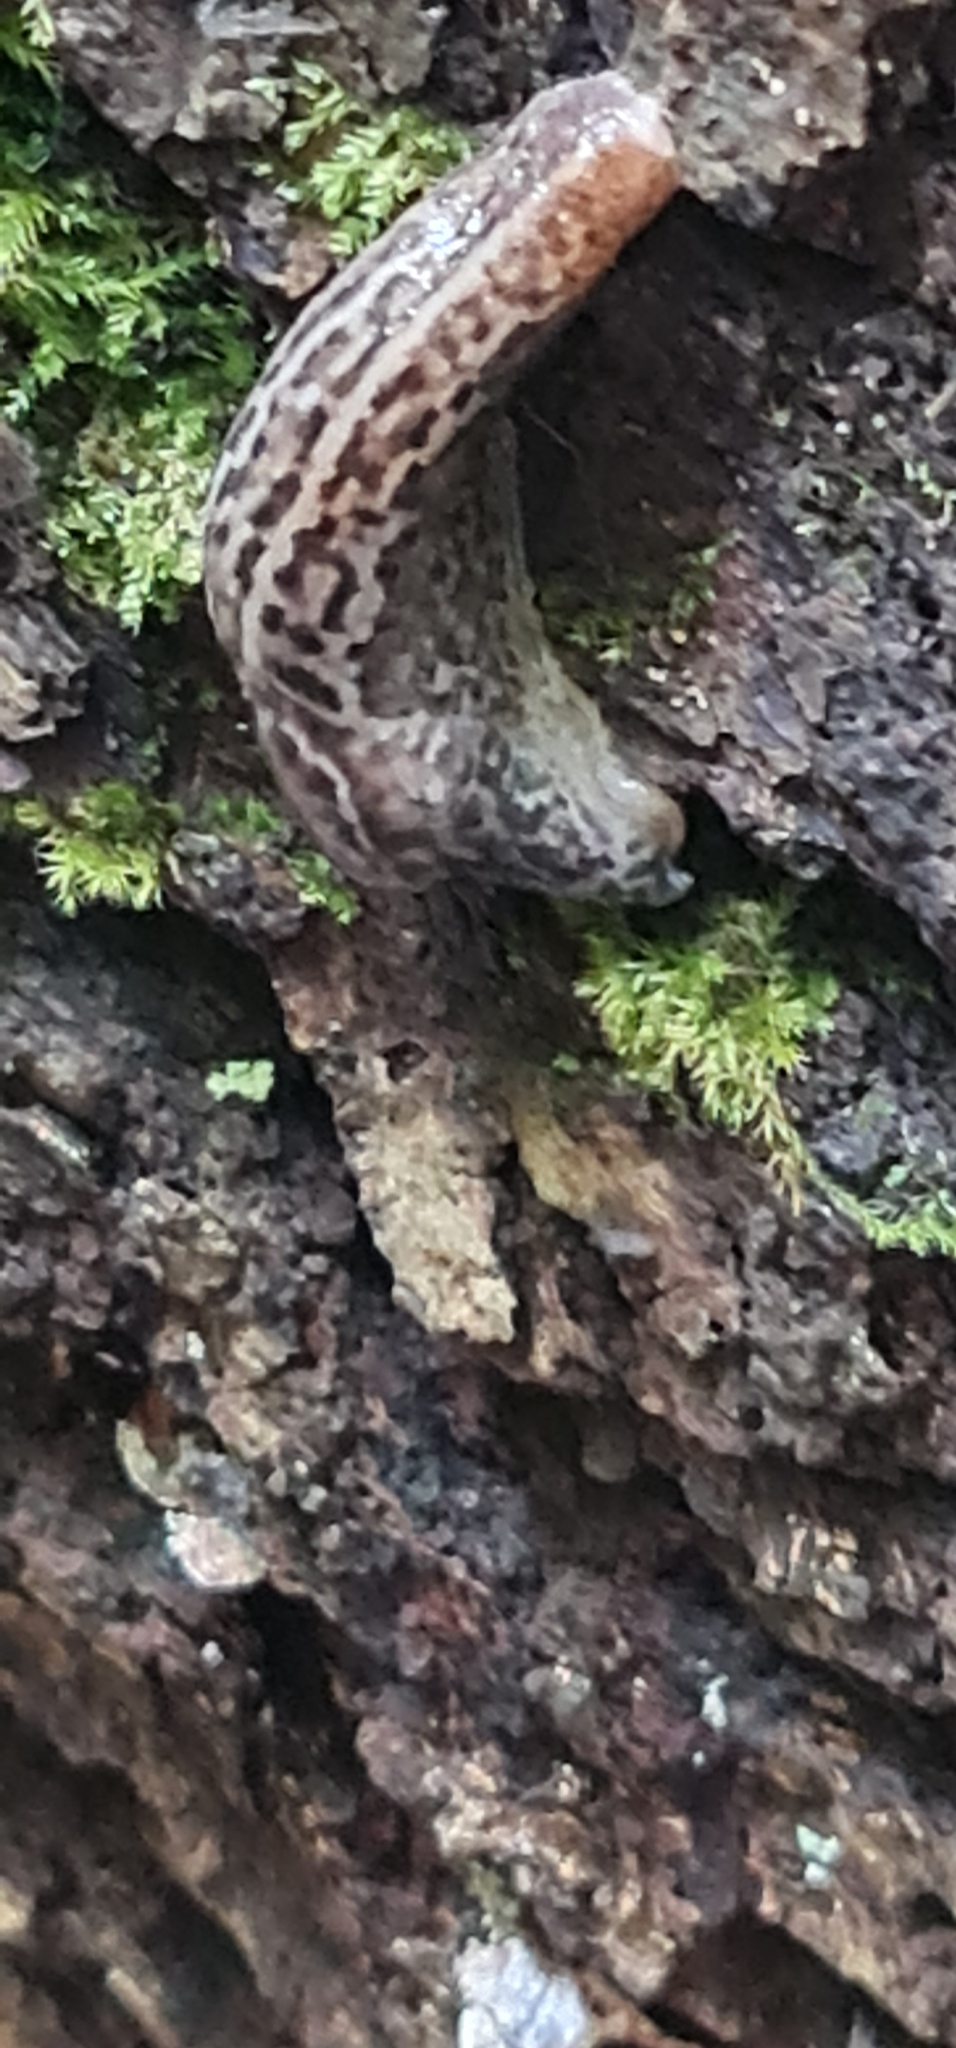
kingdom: Animalia
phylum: Mollusca
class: Gastropoda
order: Stylommatophora
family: Limacidae
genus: Limax
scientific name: Limax maximus
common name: Great grey slug
